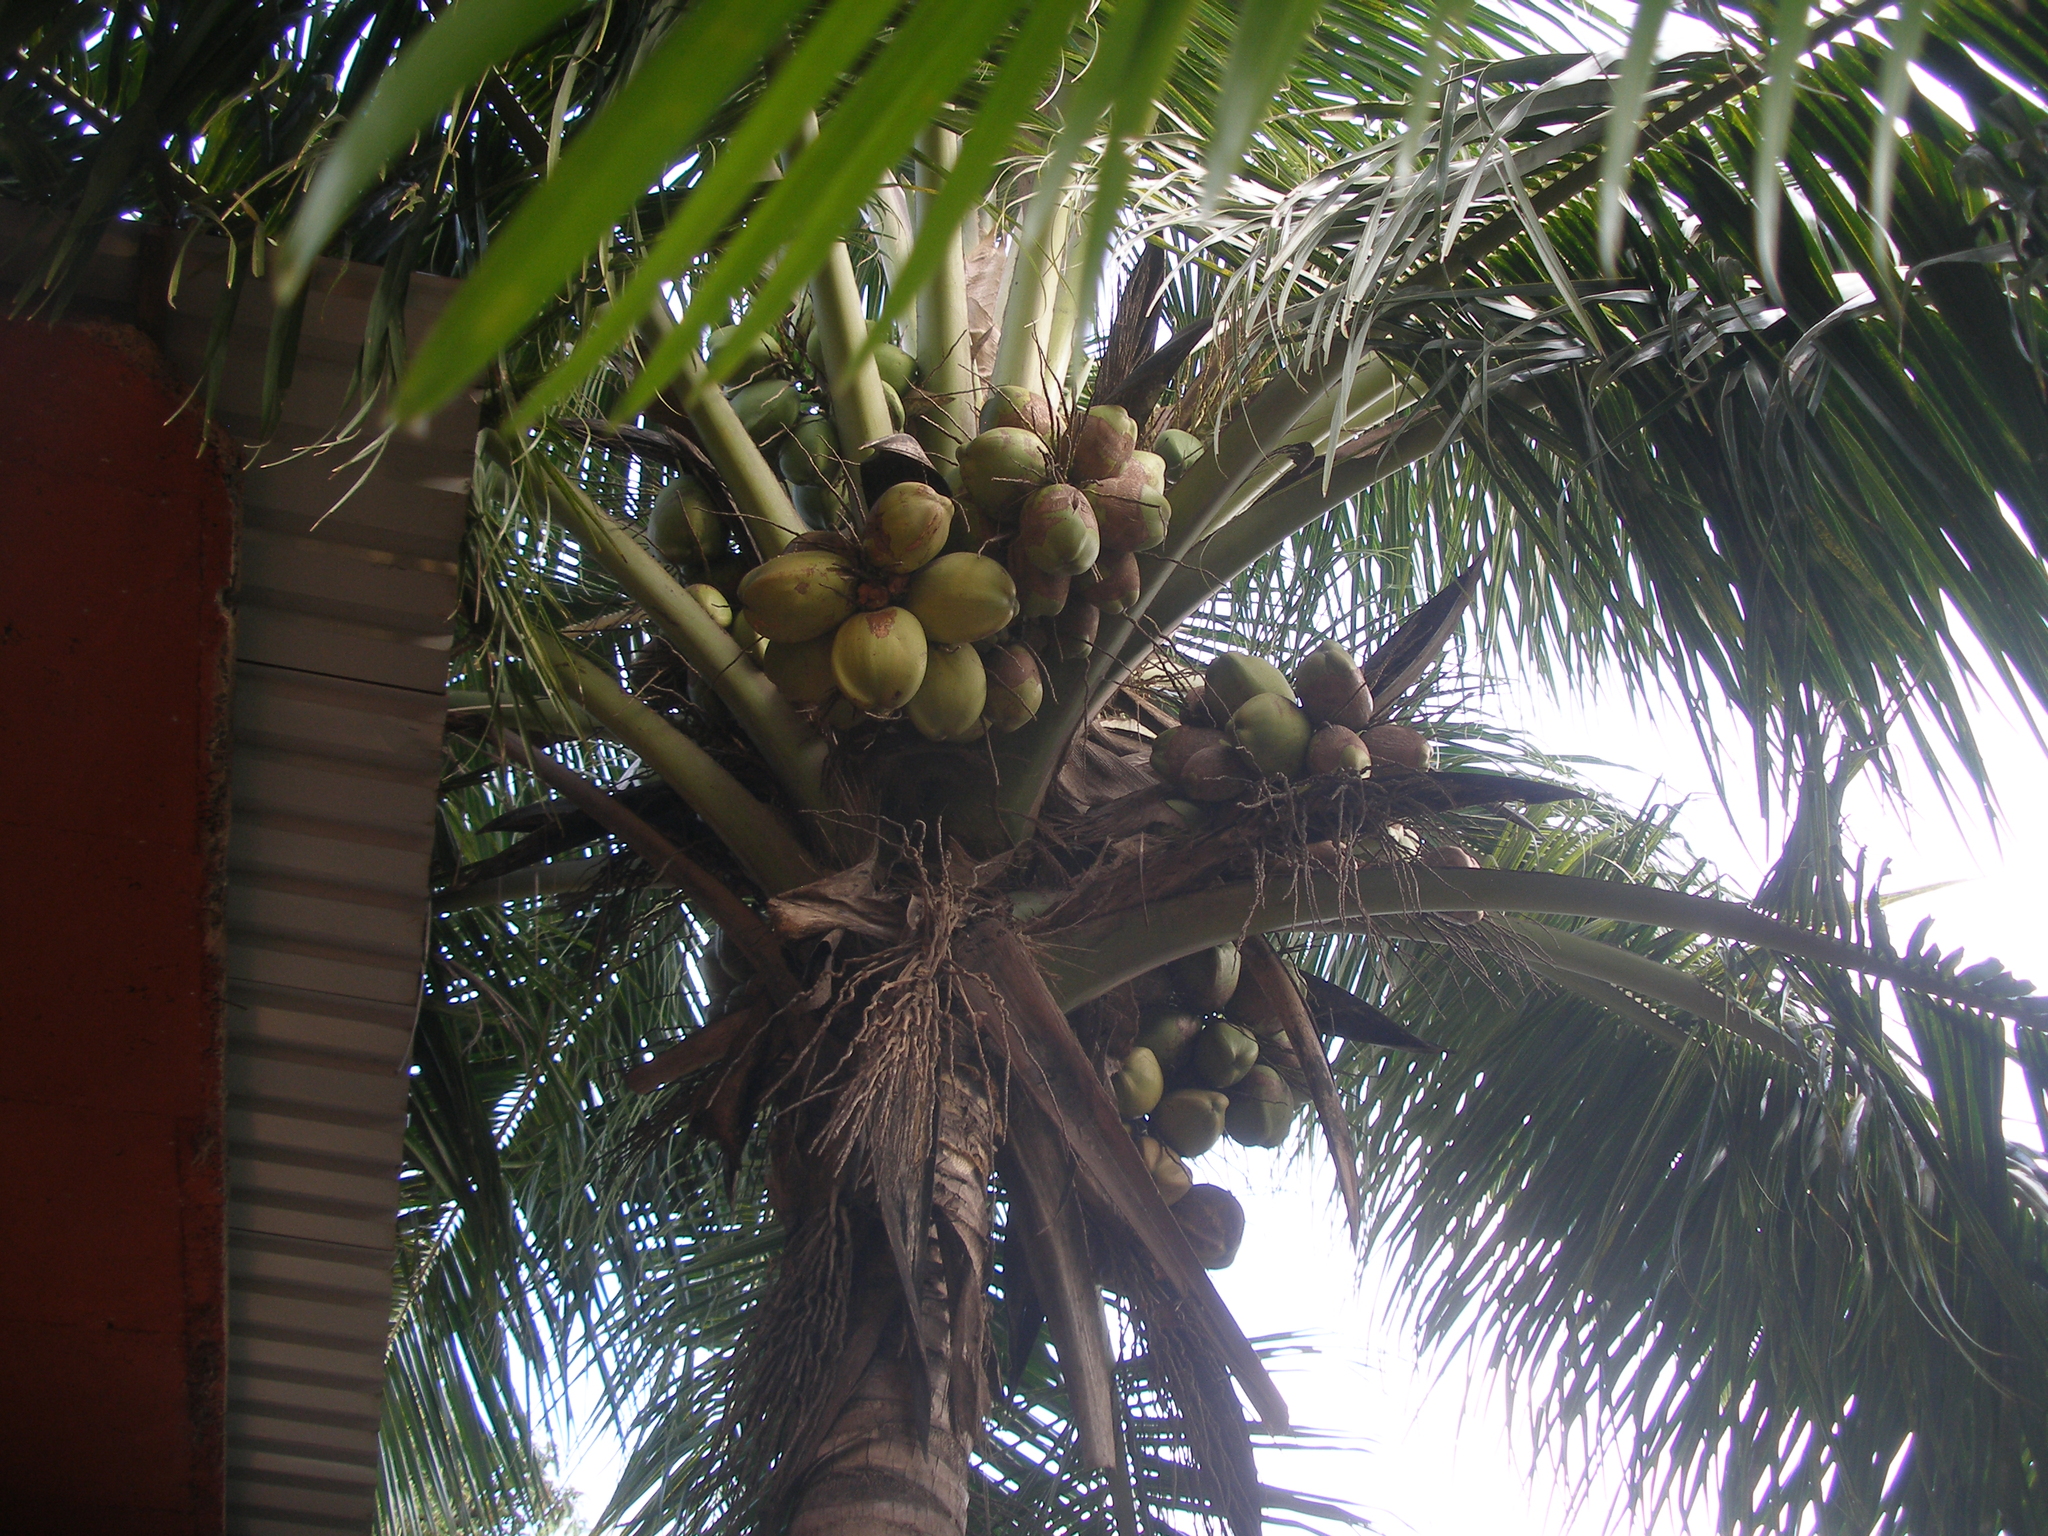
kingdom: Plantae
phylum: Tracheophyta
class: Liliopsida
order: Arecales
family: Arecaceae
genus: Cocos
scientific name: Cocos nucifera
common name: Coconut palm
